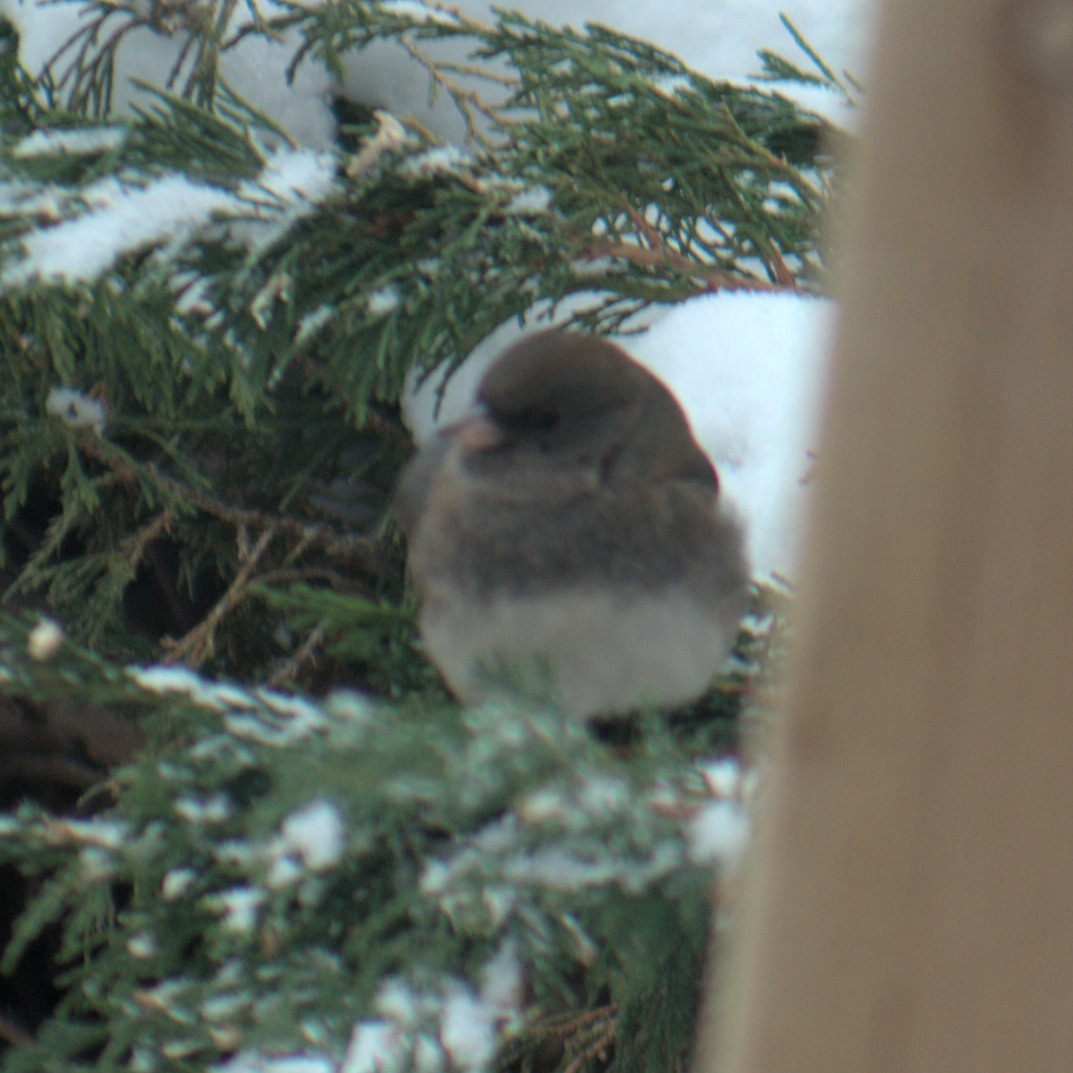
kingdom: Animalia
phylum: Chordata
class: Aves
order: Passeriformes
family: Passerellidae
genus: Junco
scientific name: Junco hyemalis
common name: Dark-eyed junco
